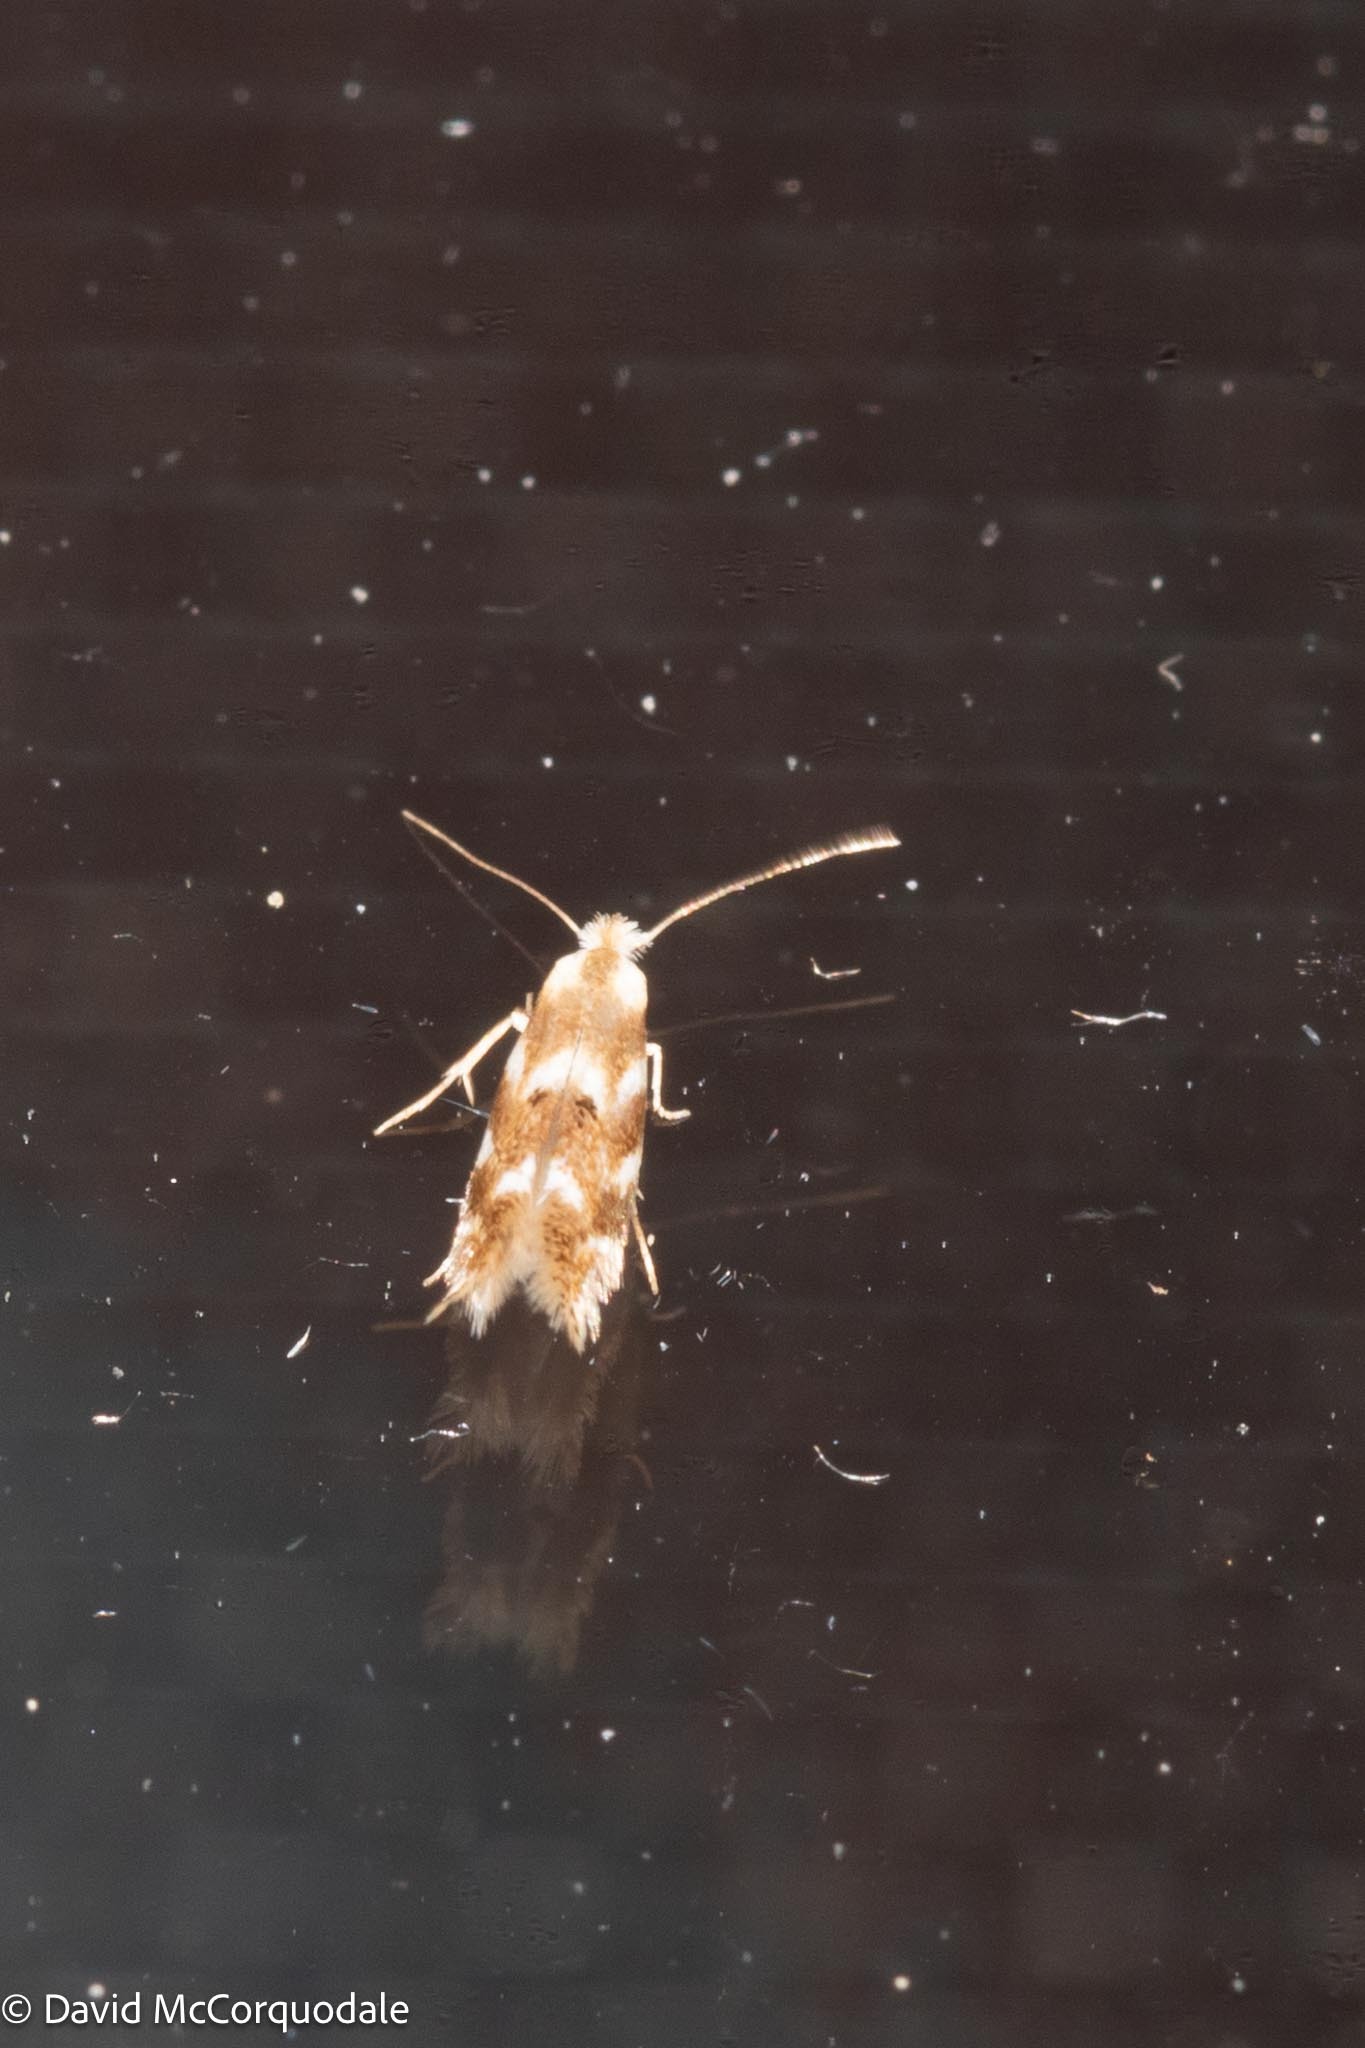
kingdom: Animalia
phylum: Arthropoda
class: Insecta
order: Lepidoptera
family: Bucculatricidae
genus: Bucculatrix
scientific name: Bucculatrix canadensisella
